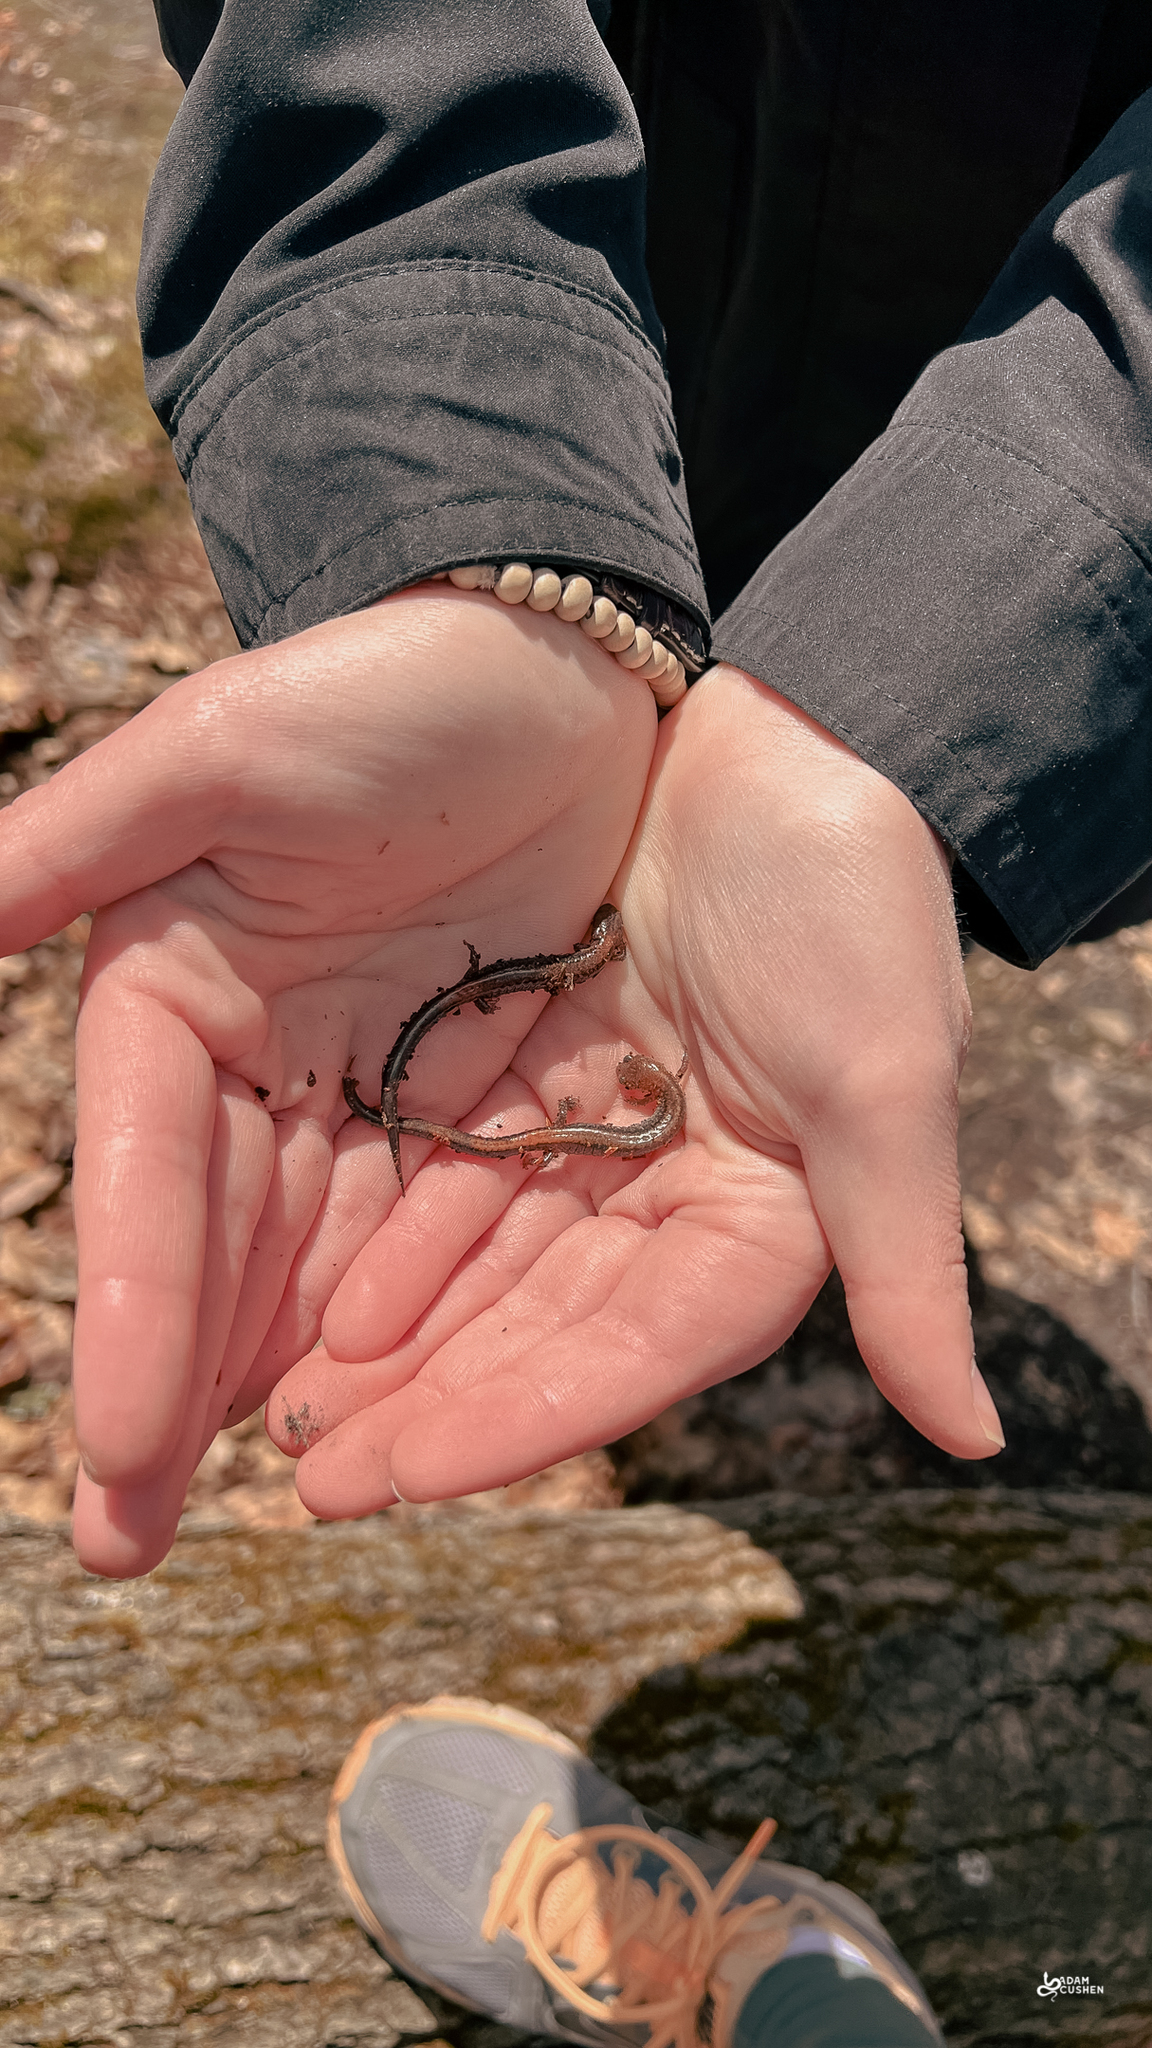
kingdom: Animalia
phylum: Chordata
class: Amphibia
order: Caudata
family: Plethodontidae
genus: Plethodon
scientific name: Plethodon cinereus
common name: Redback salamander
